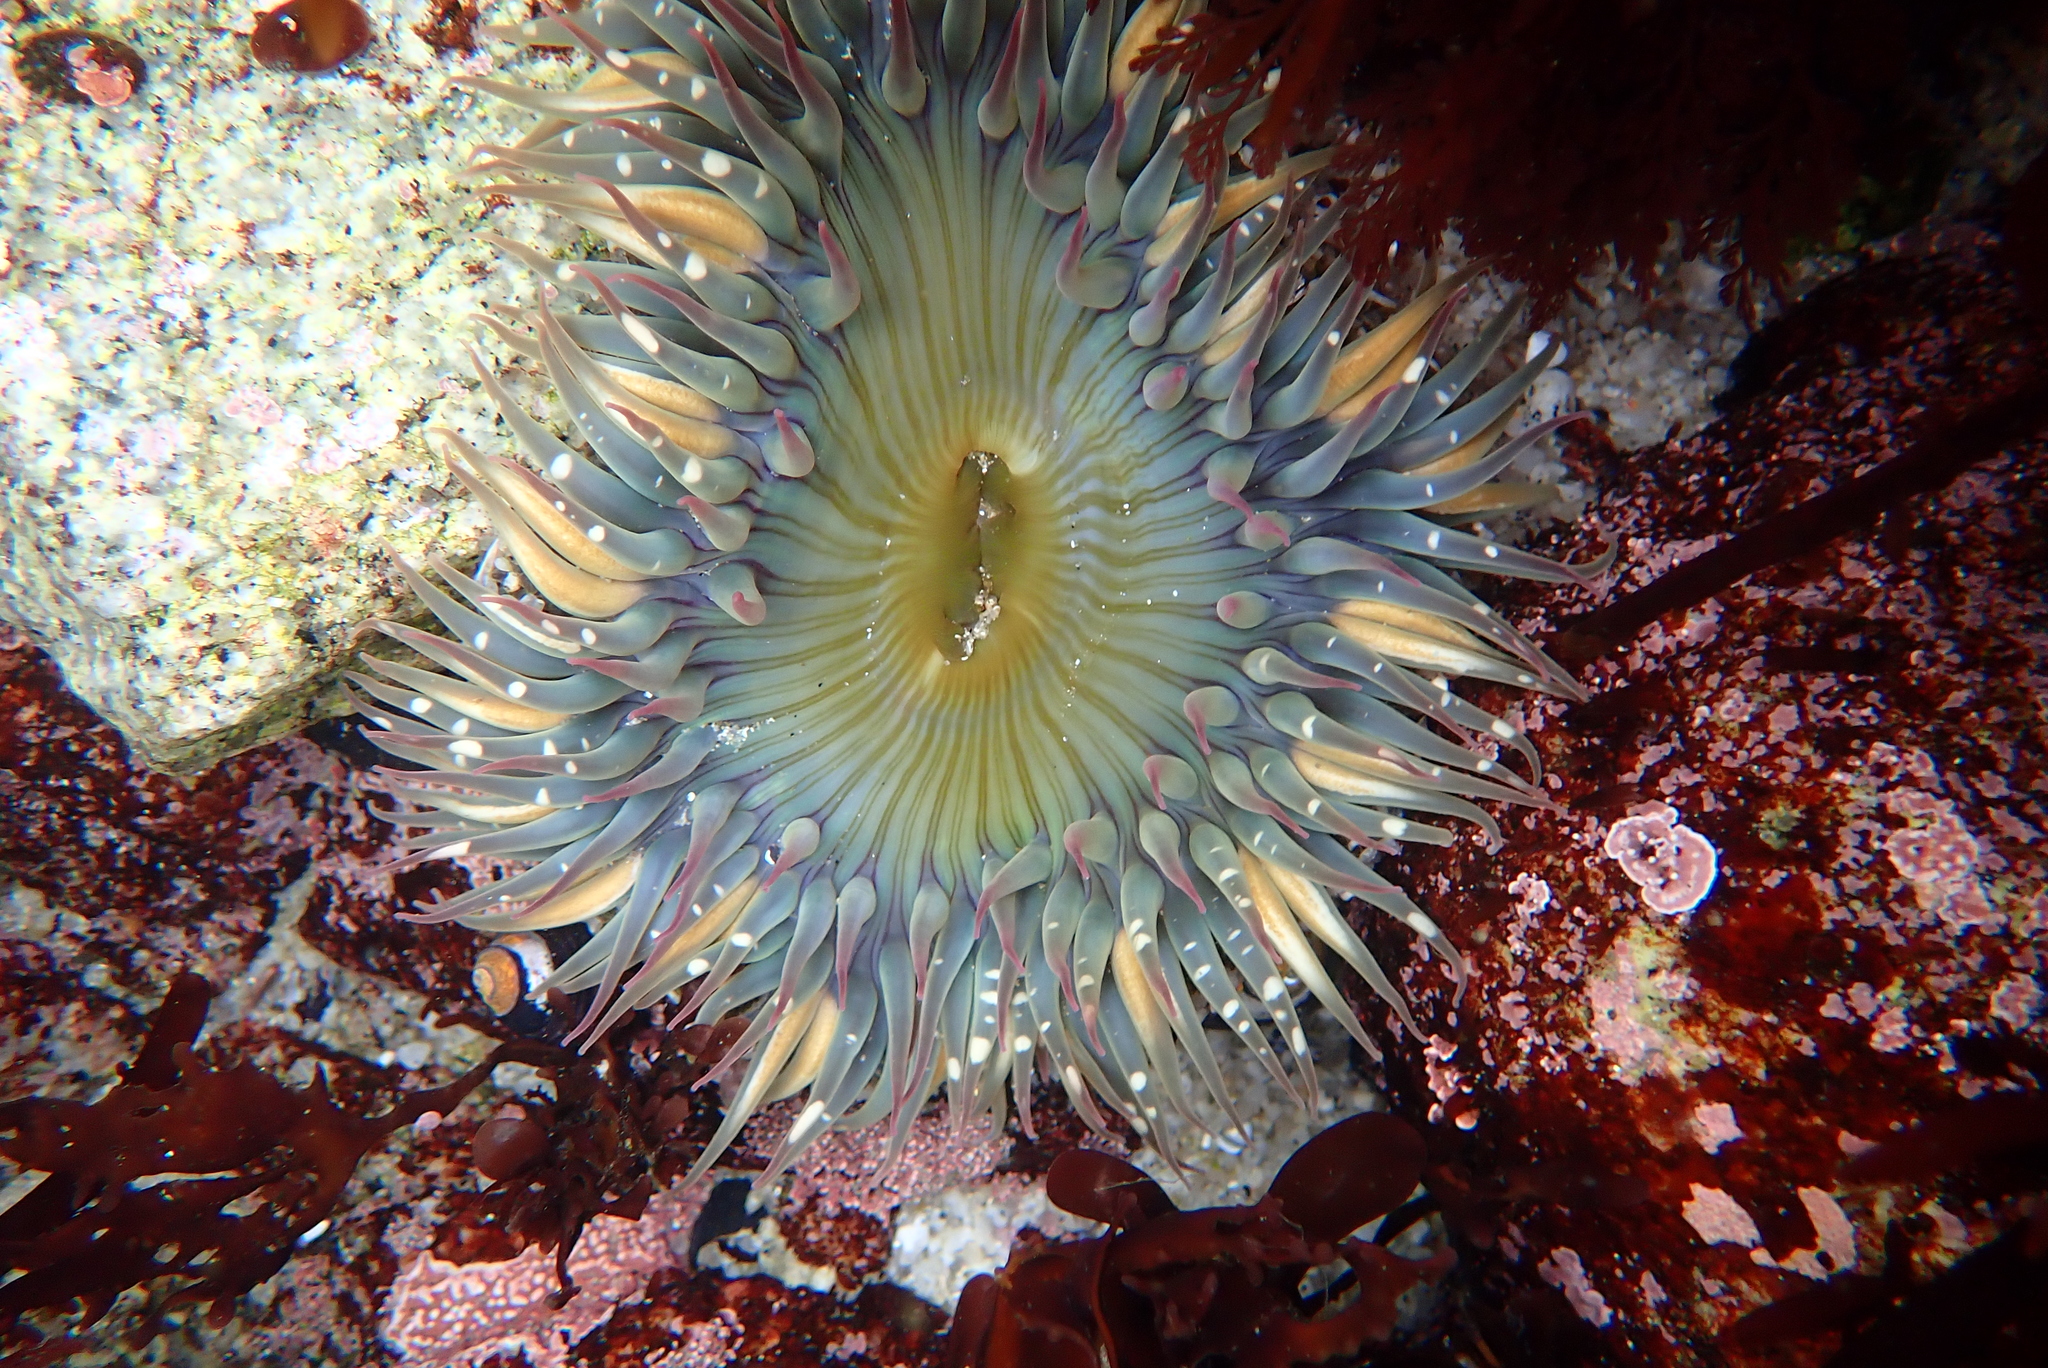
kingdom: Animalia
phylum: Cnidaria
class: Anthozoa
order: Actiniaria
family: Actiniidae
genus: Anthopleura
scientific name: Anthopleura sola
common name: Sun anemone
